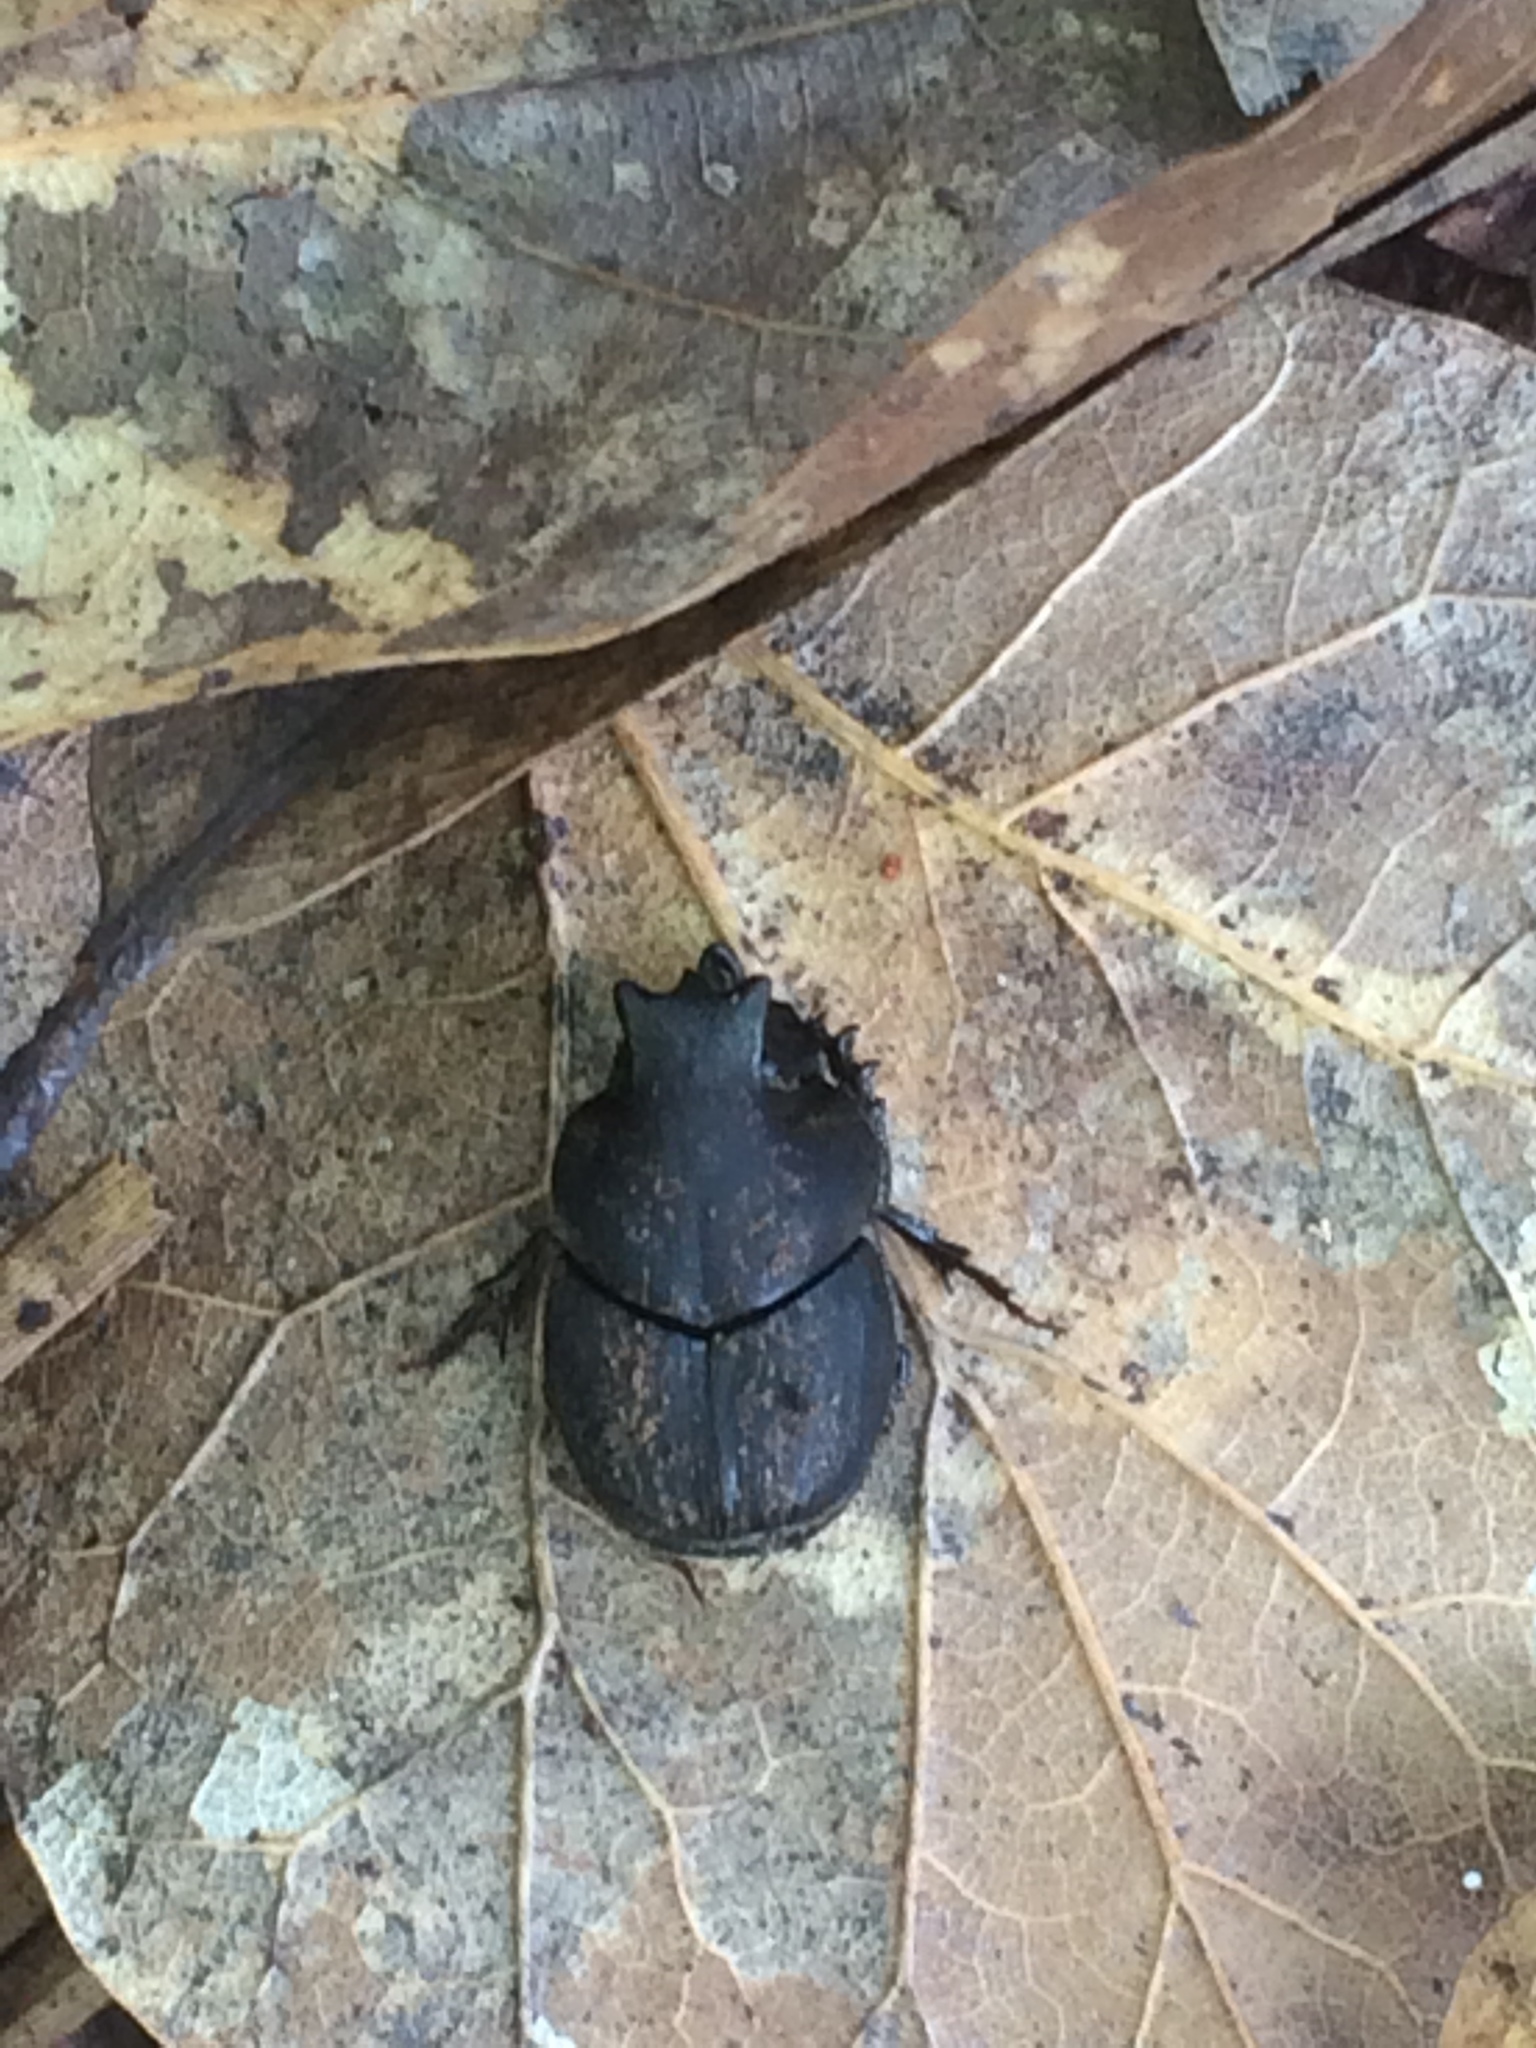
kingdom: Animalia
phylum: Arthropoda
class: Insecta
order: Coleoptera
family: Scarabaeidae
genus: Onthophagus
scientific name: Onthophagus hecate
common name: Scooped scarab
